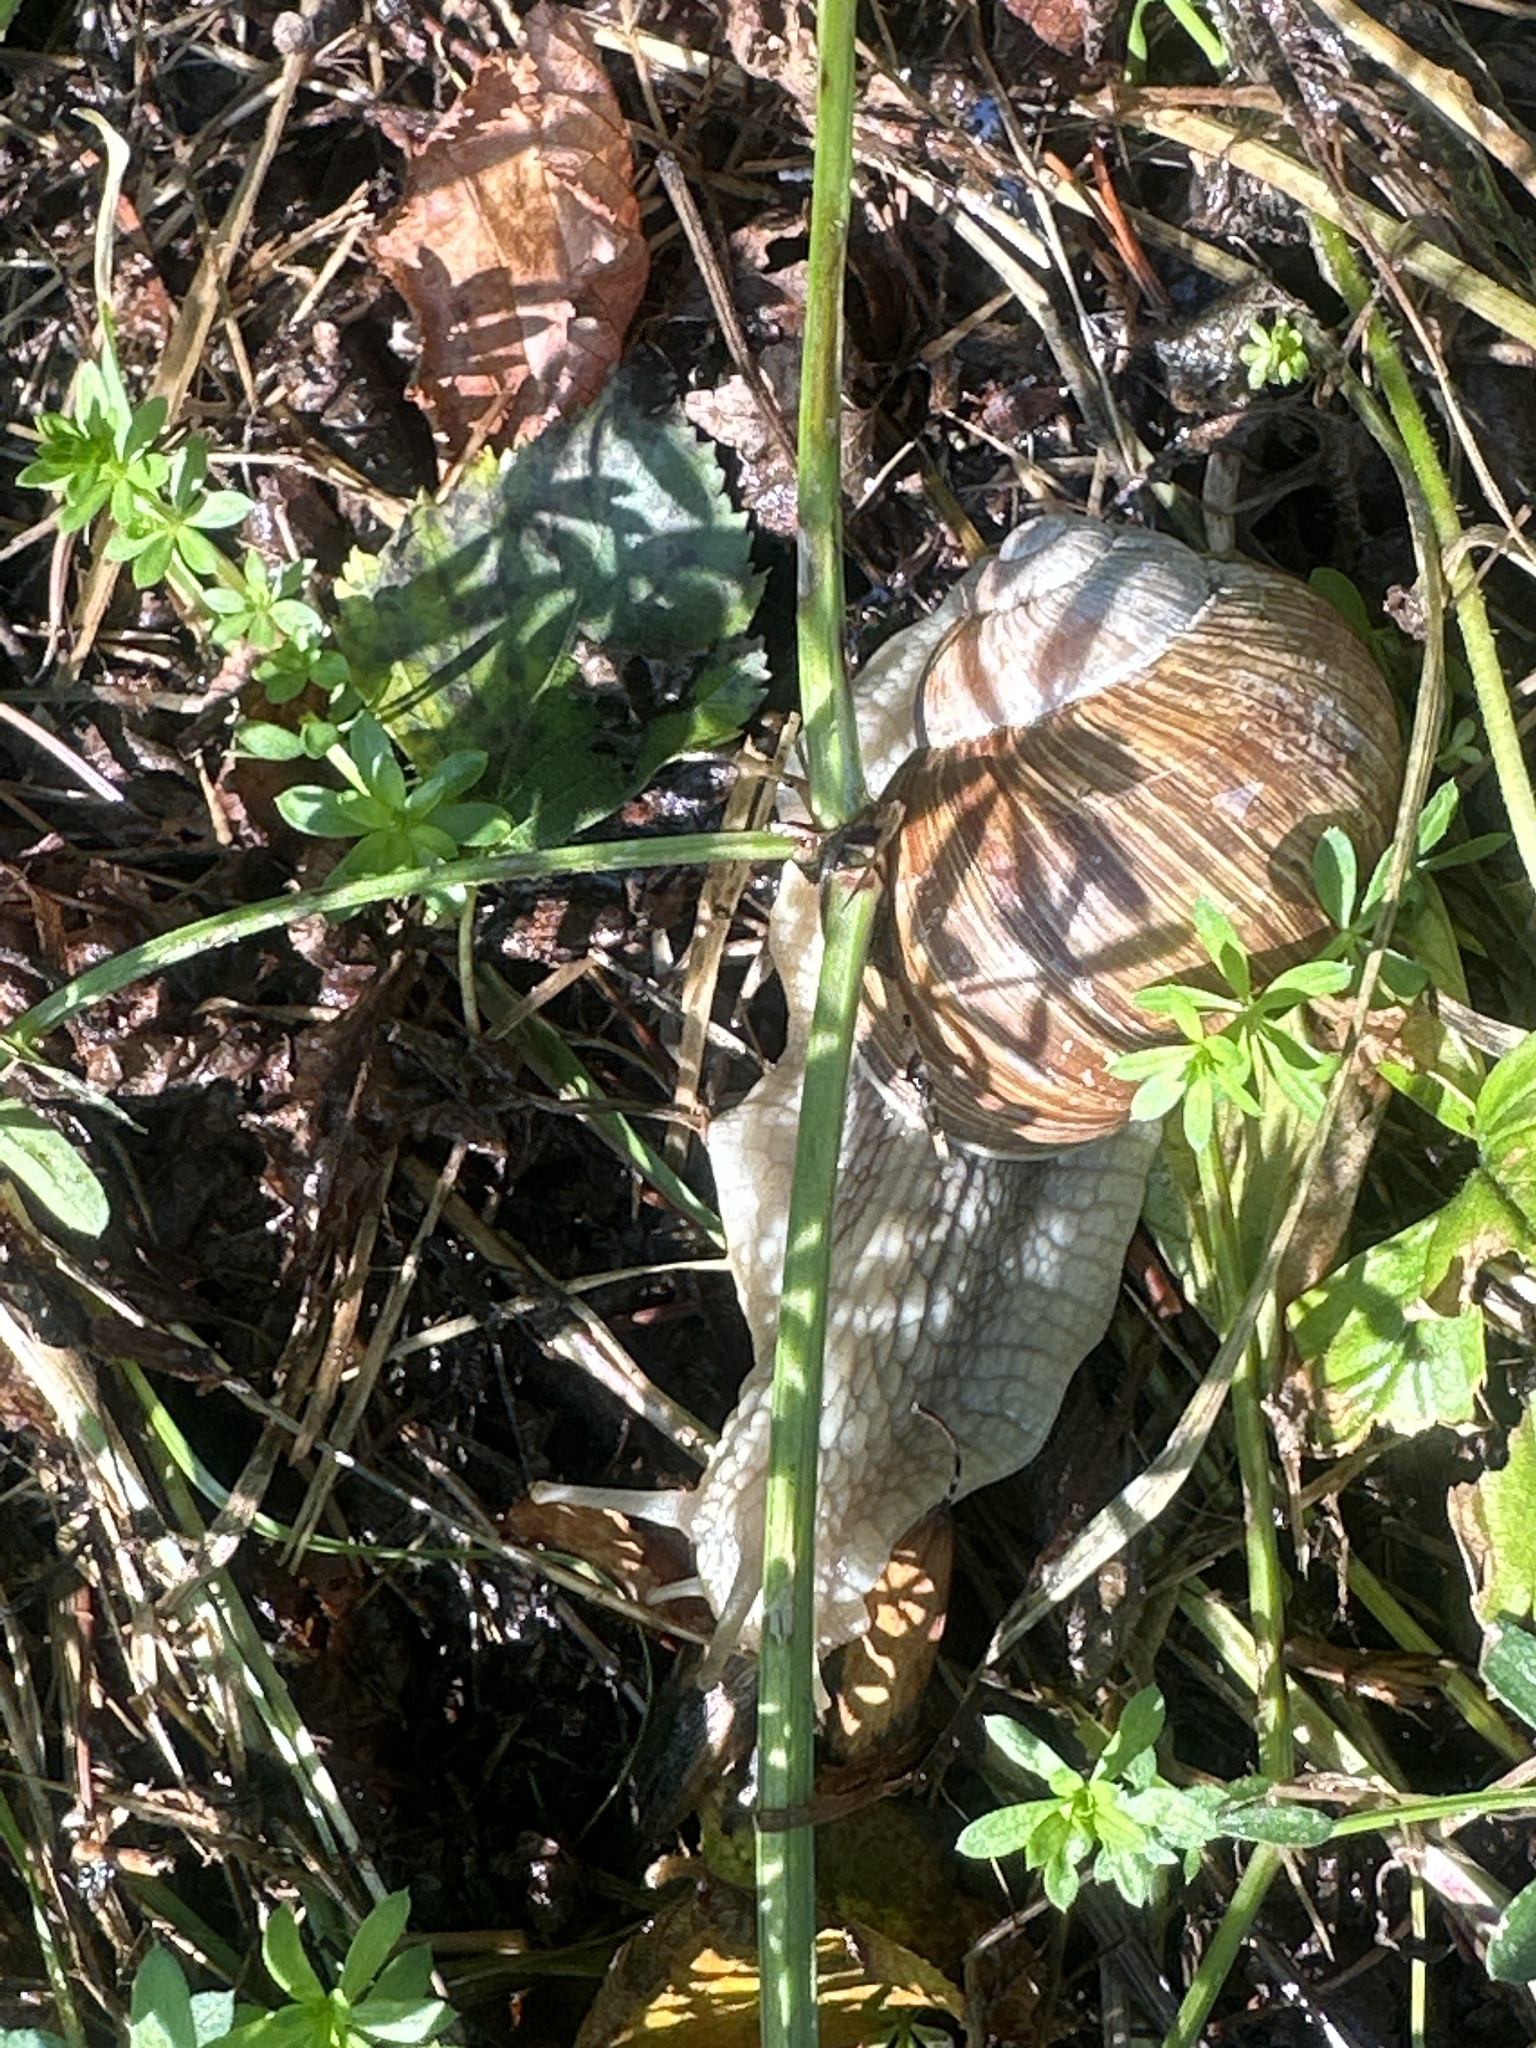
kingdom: Animalia
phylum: Mollusca
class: Gastropoda
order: Stylommatophora
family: Helicidae
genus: Helix
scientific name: Helix pomatia
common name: Roman snail
